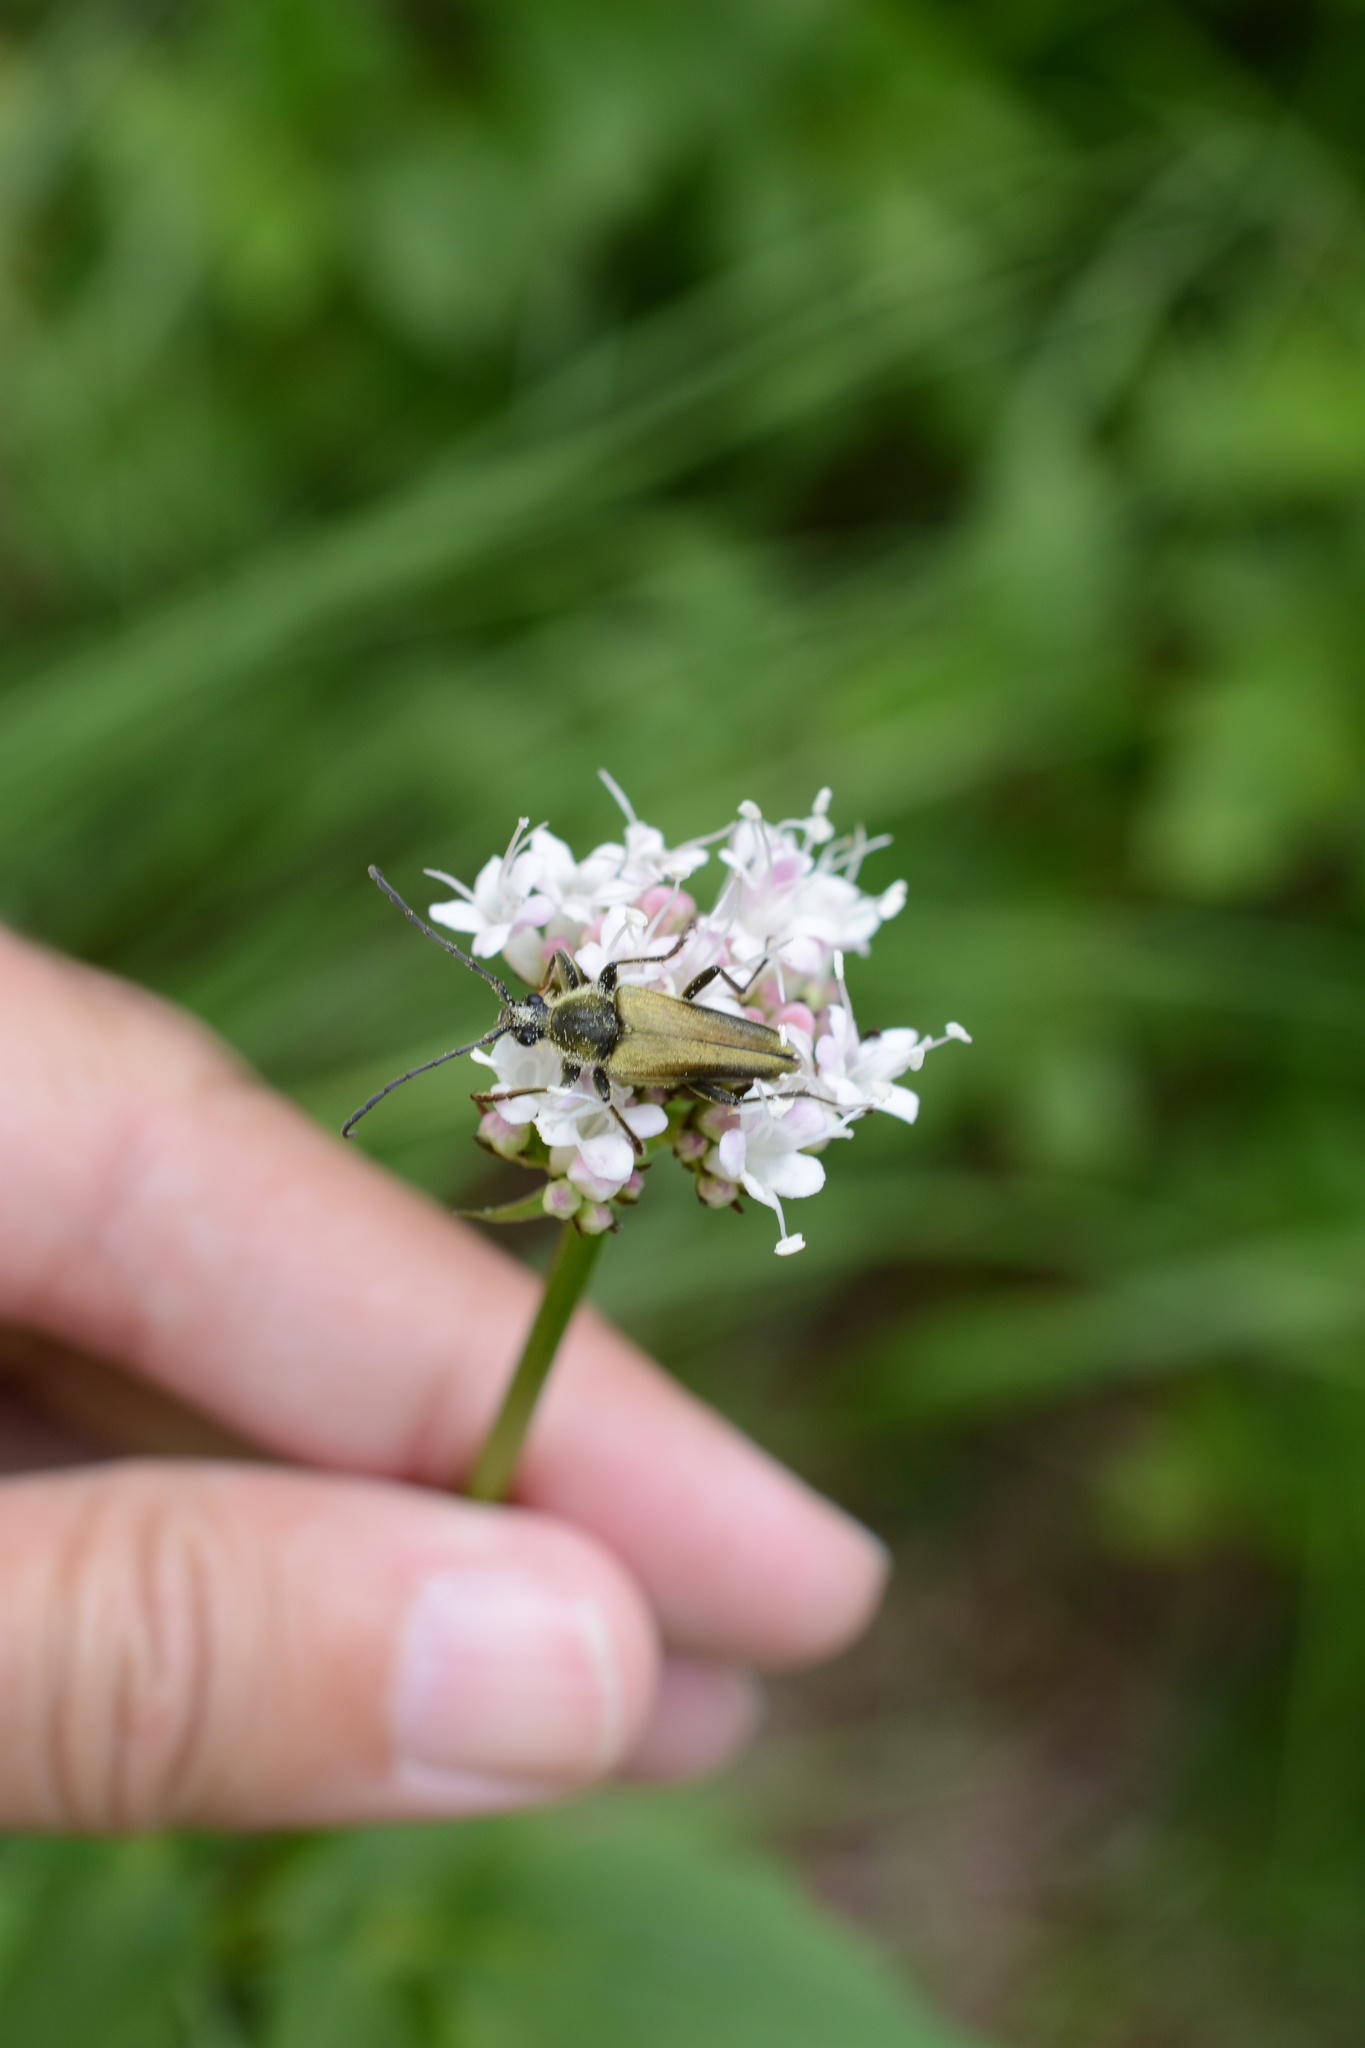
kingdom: Animalia
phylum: Arthropoda
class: Insecta
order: Coleoptera
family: Cerambycidae
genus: Cosmosalia
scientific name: Cosmosalia chrysocoma
